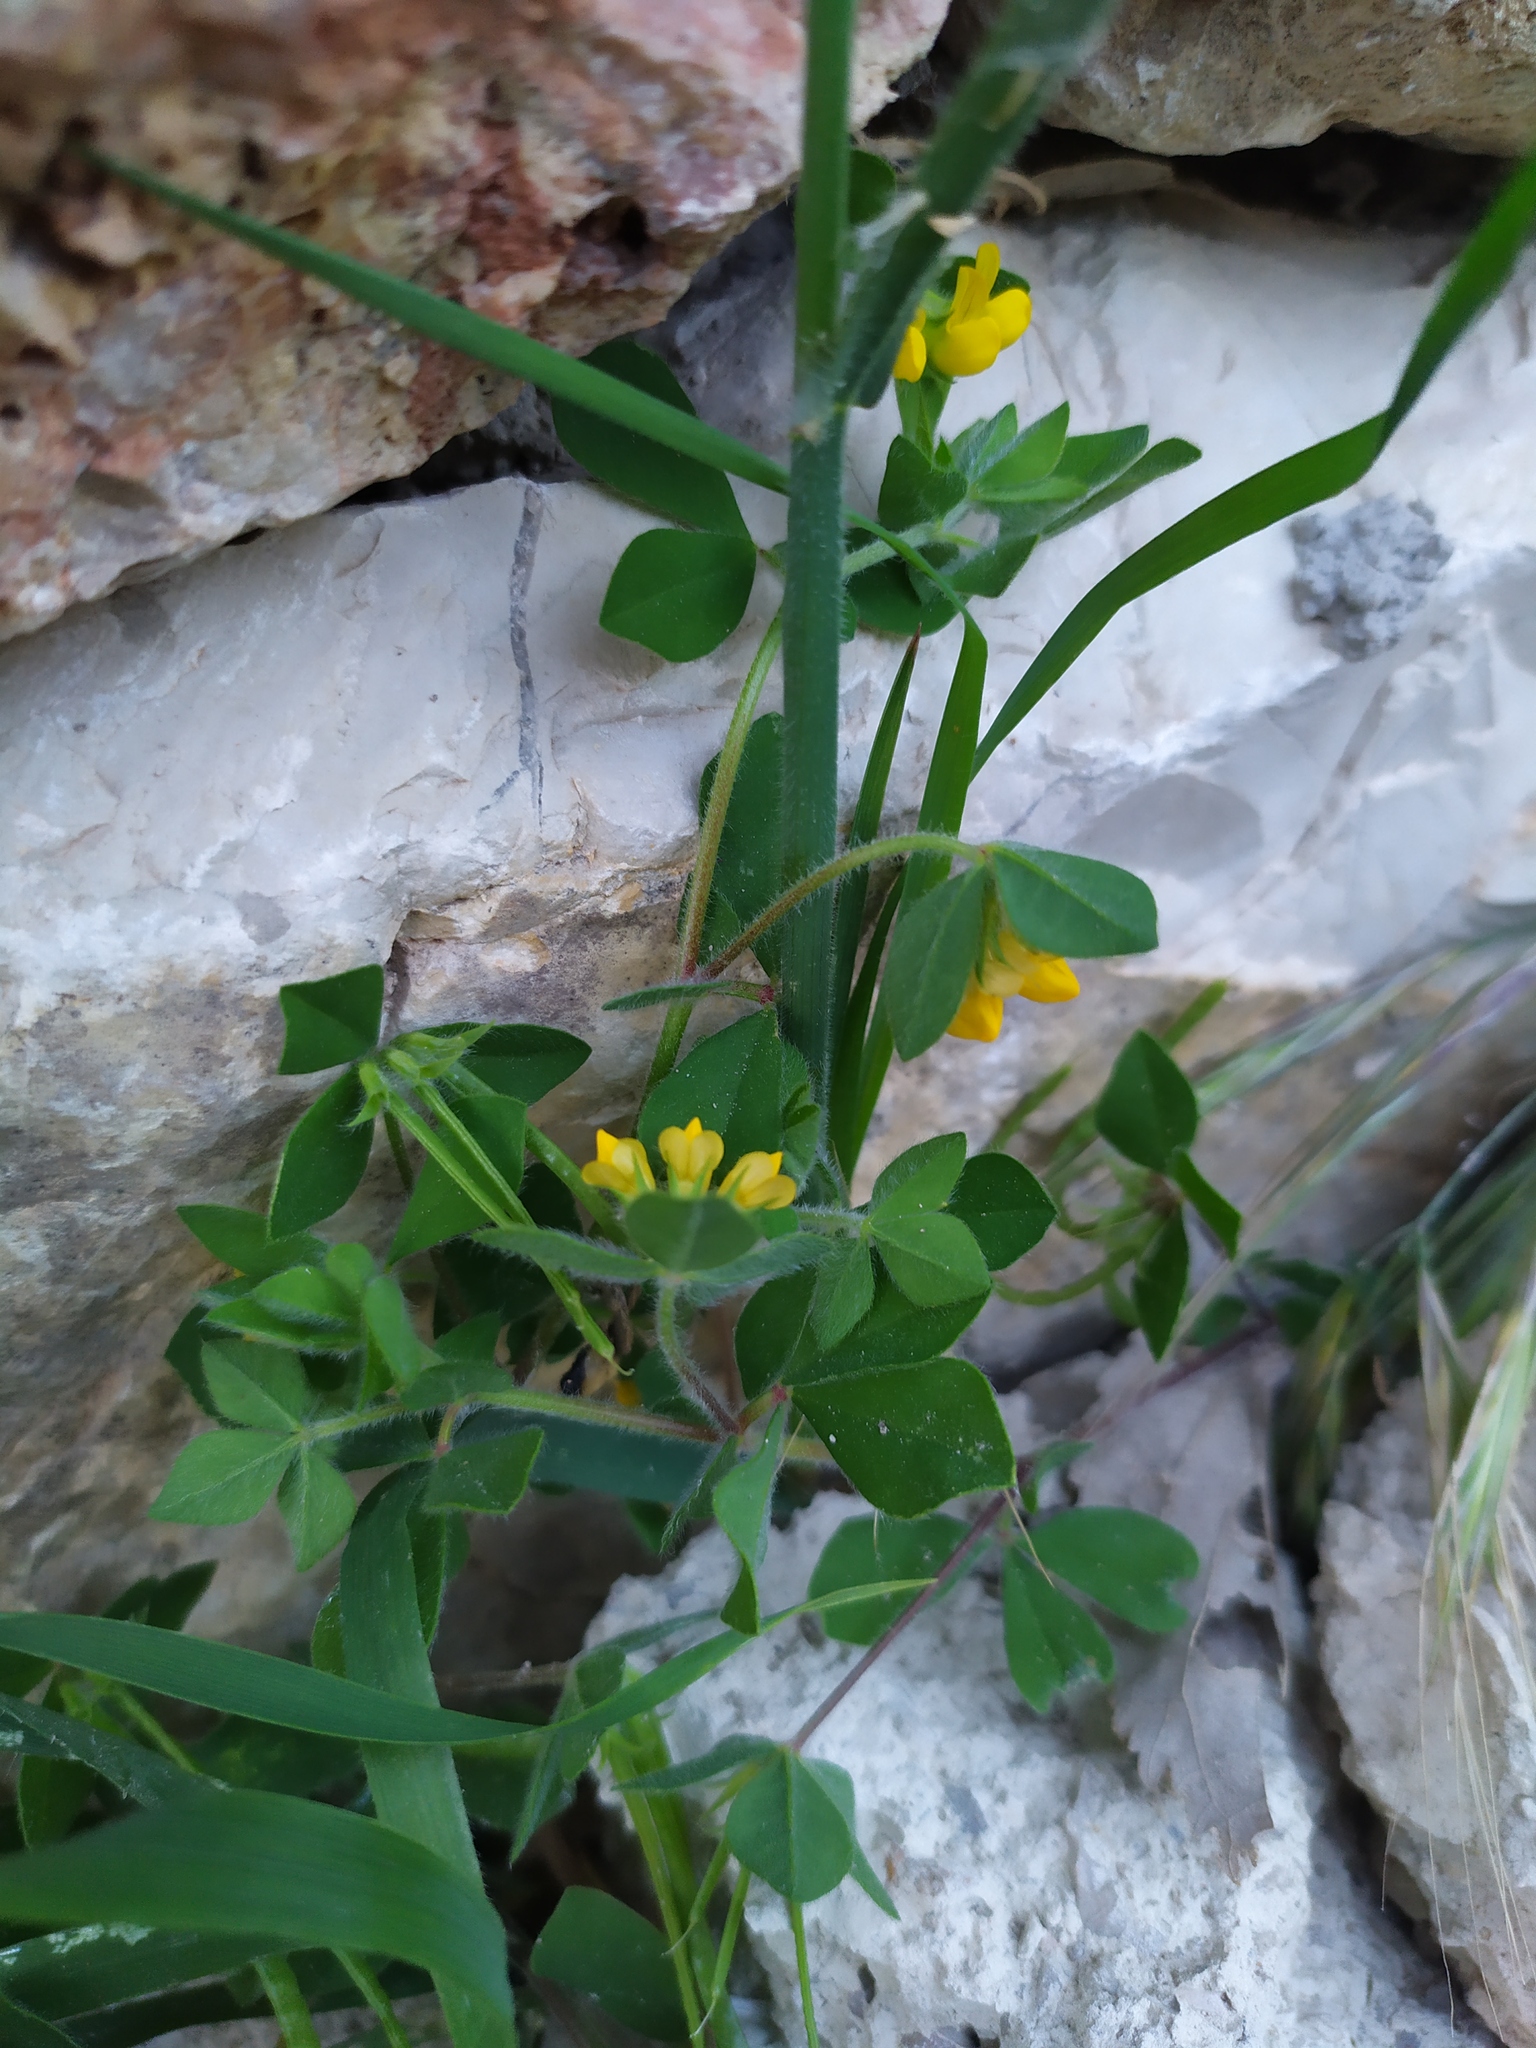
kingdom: Plantae
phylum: Tracheophyta
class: Magnoliopsida
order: Fabales
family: Fabaceae
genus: Lotus
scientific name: Lotus ornithopodioides
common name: Southern bird's-foot trefoil
